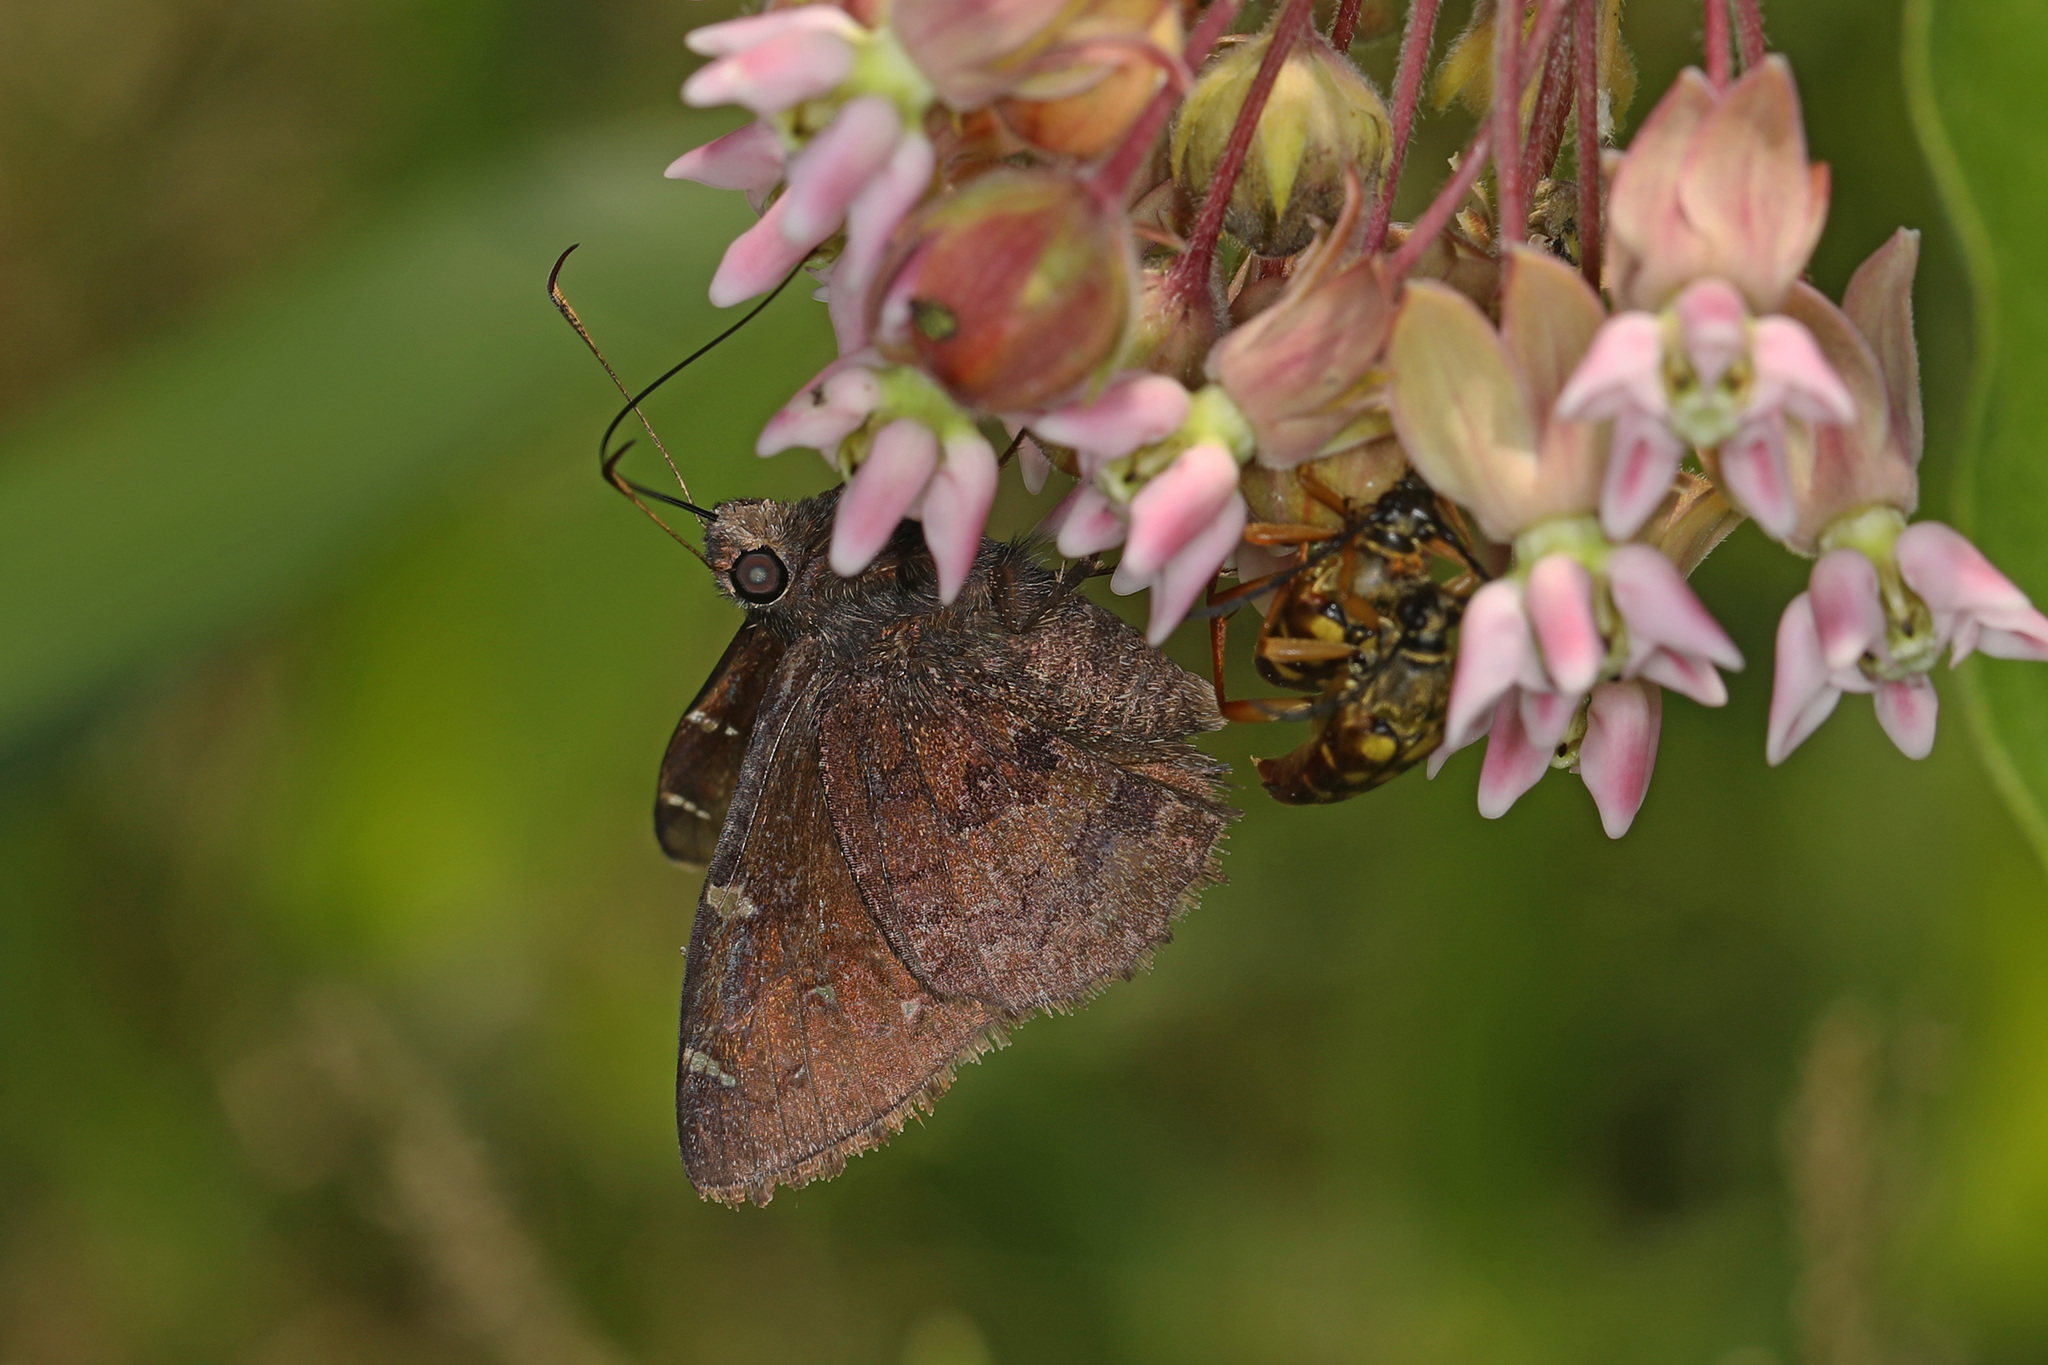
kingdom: Animalia
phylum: Arthropoda
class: Insecta
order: Lepidoptera
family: Hesperiidae
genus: Thorybes
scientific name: Thorybes pylades
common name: Northern cloudywing
